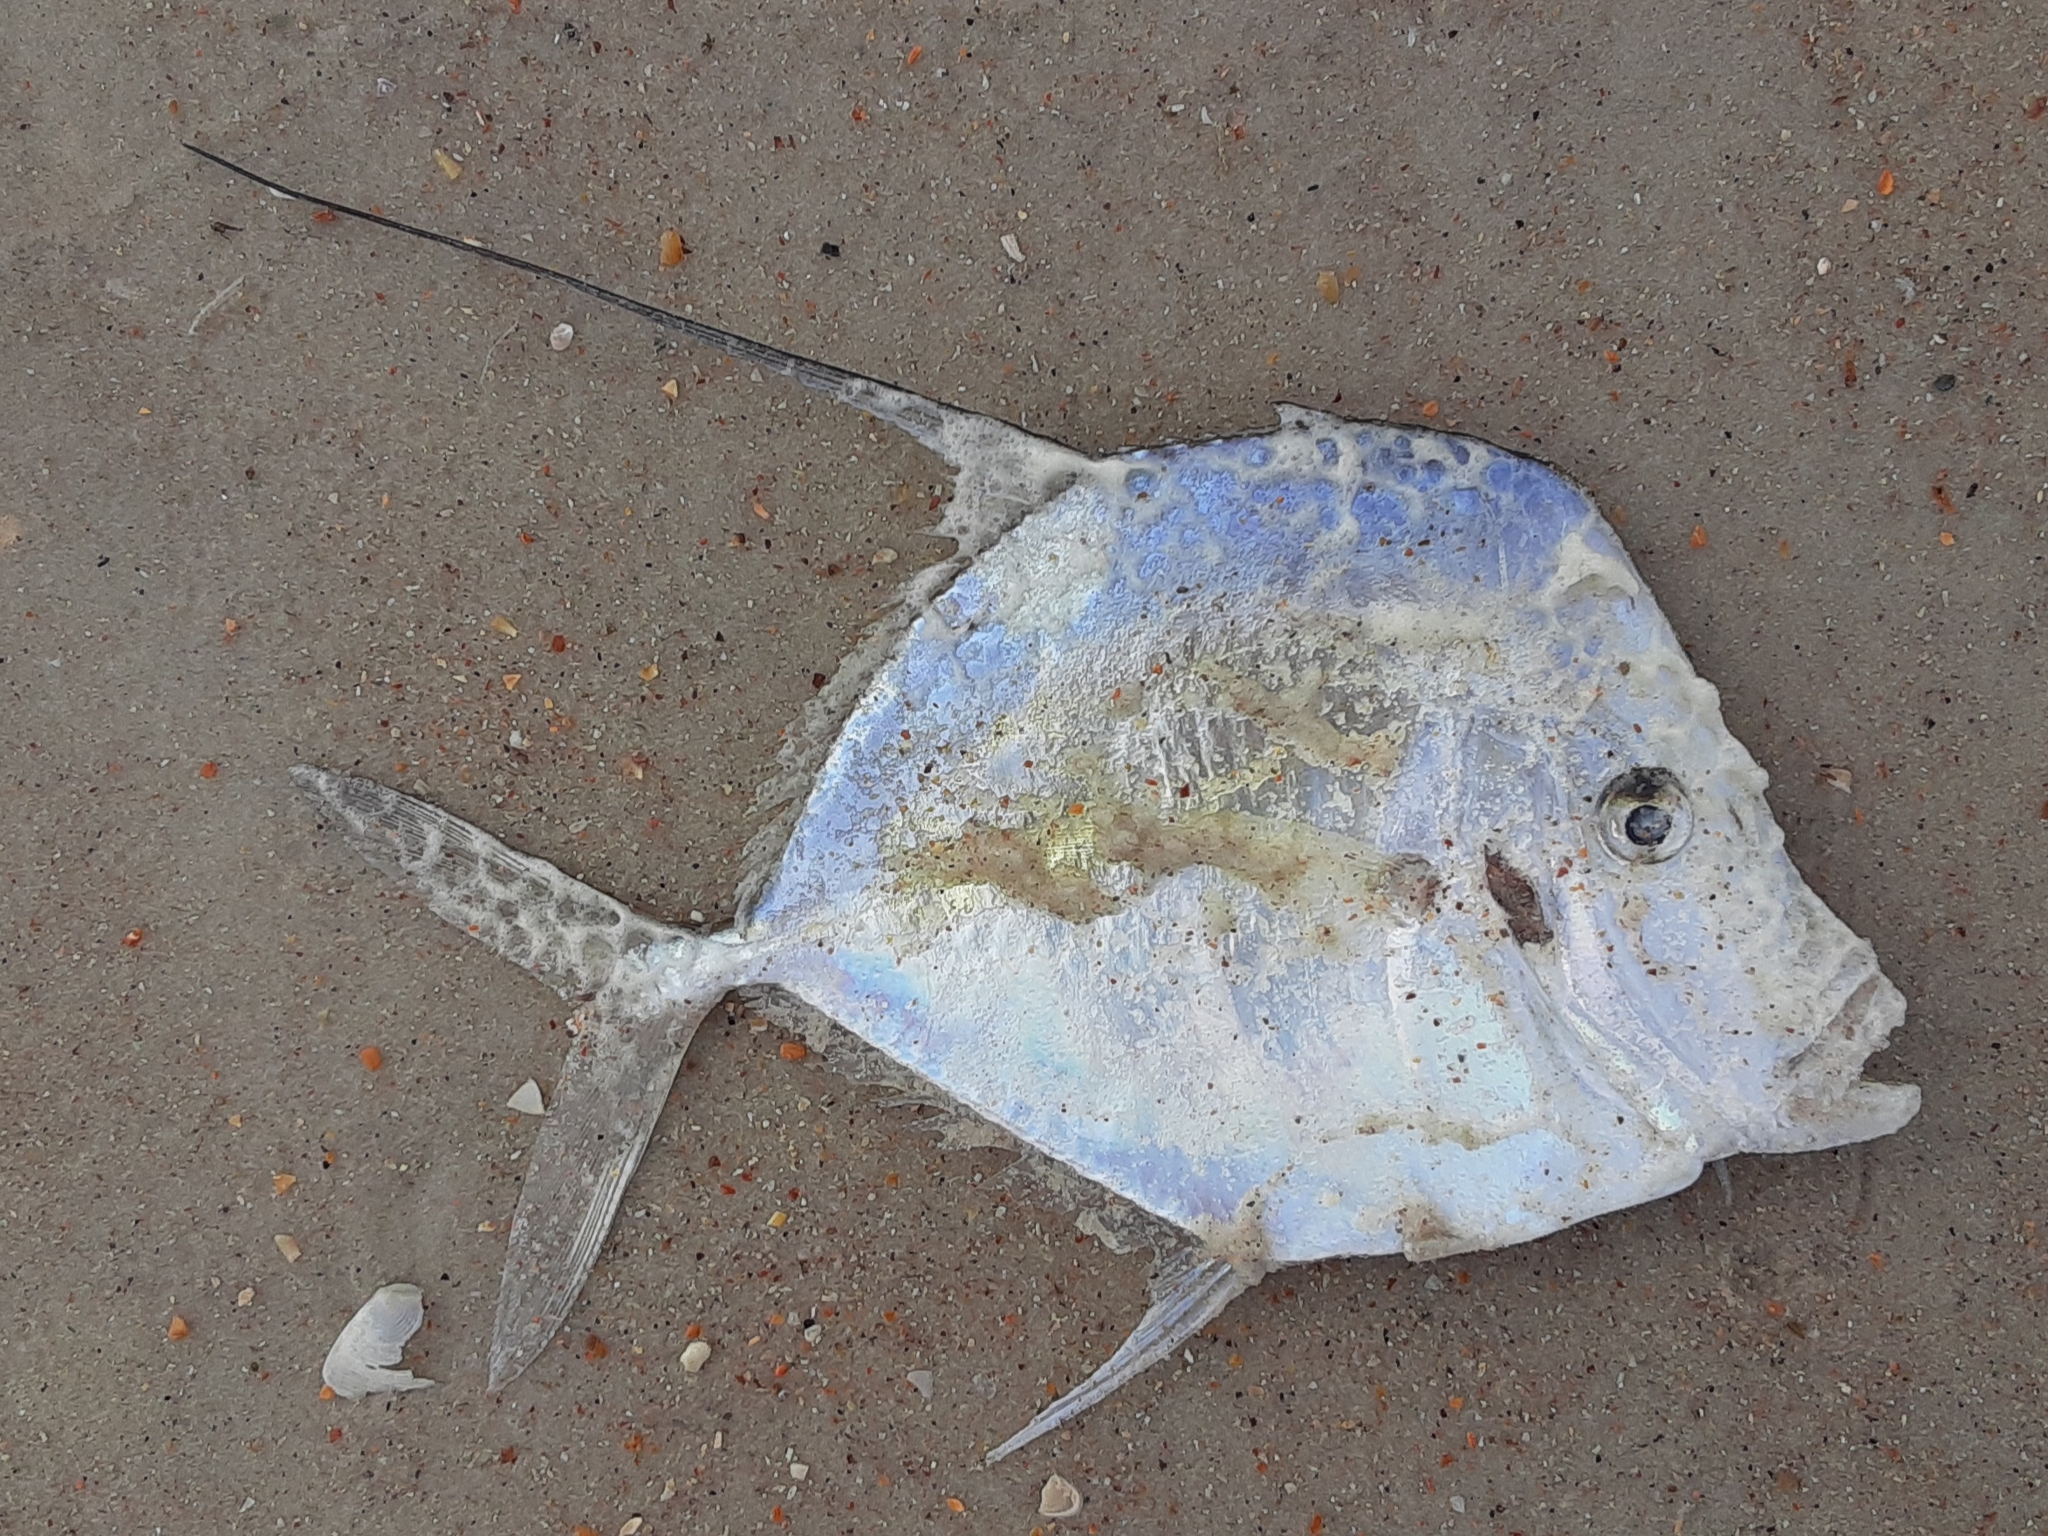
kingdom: Animalia
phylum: Chordata
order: Perciformes
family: Carangidae
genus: Selene
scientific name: Selene vomer
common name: Lookdown
